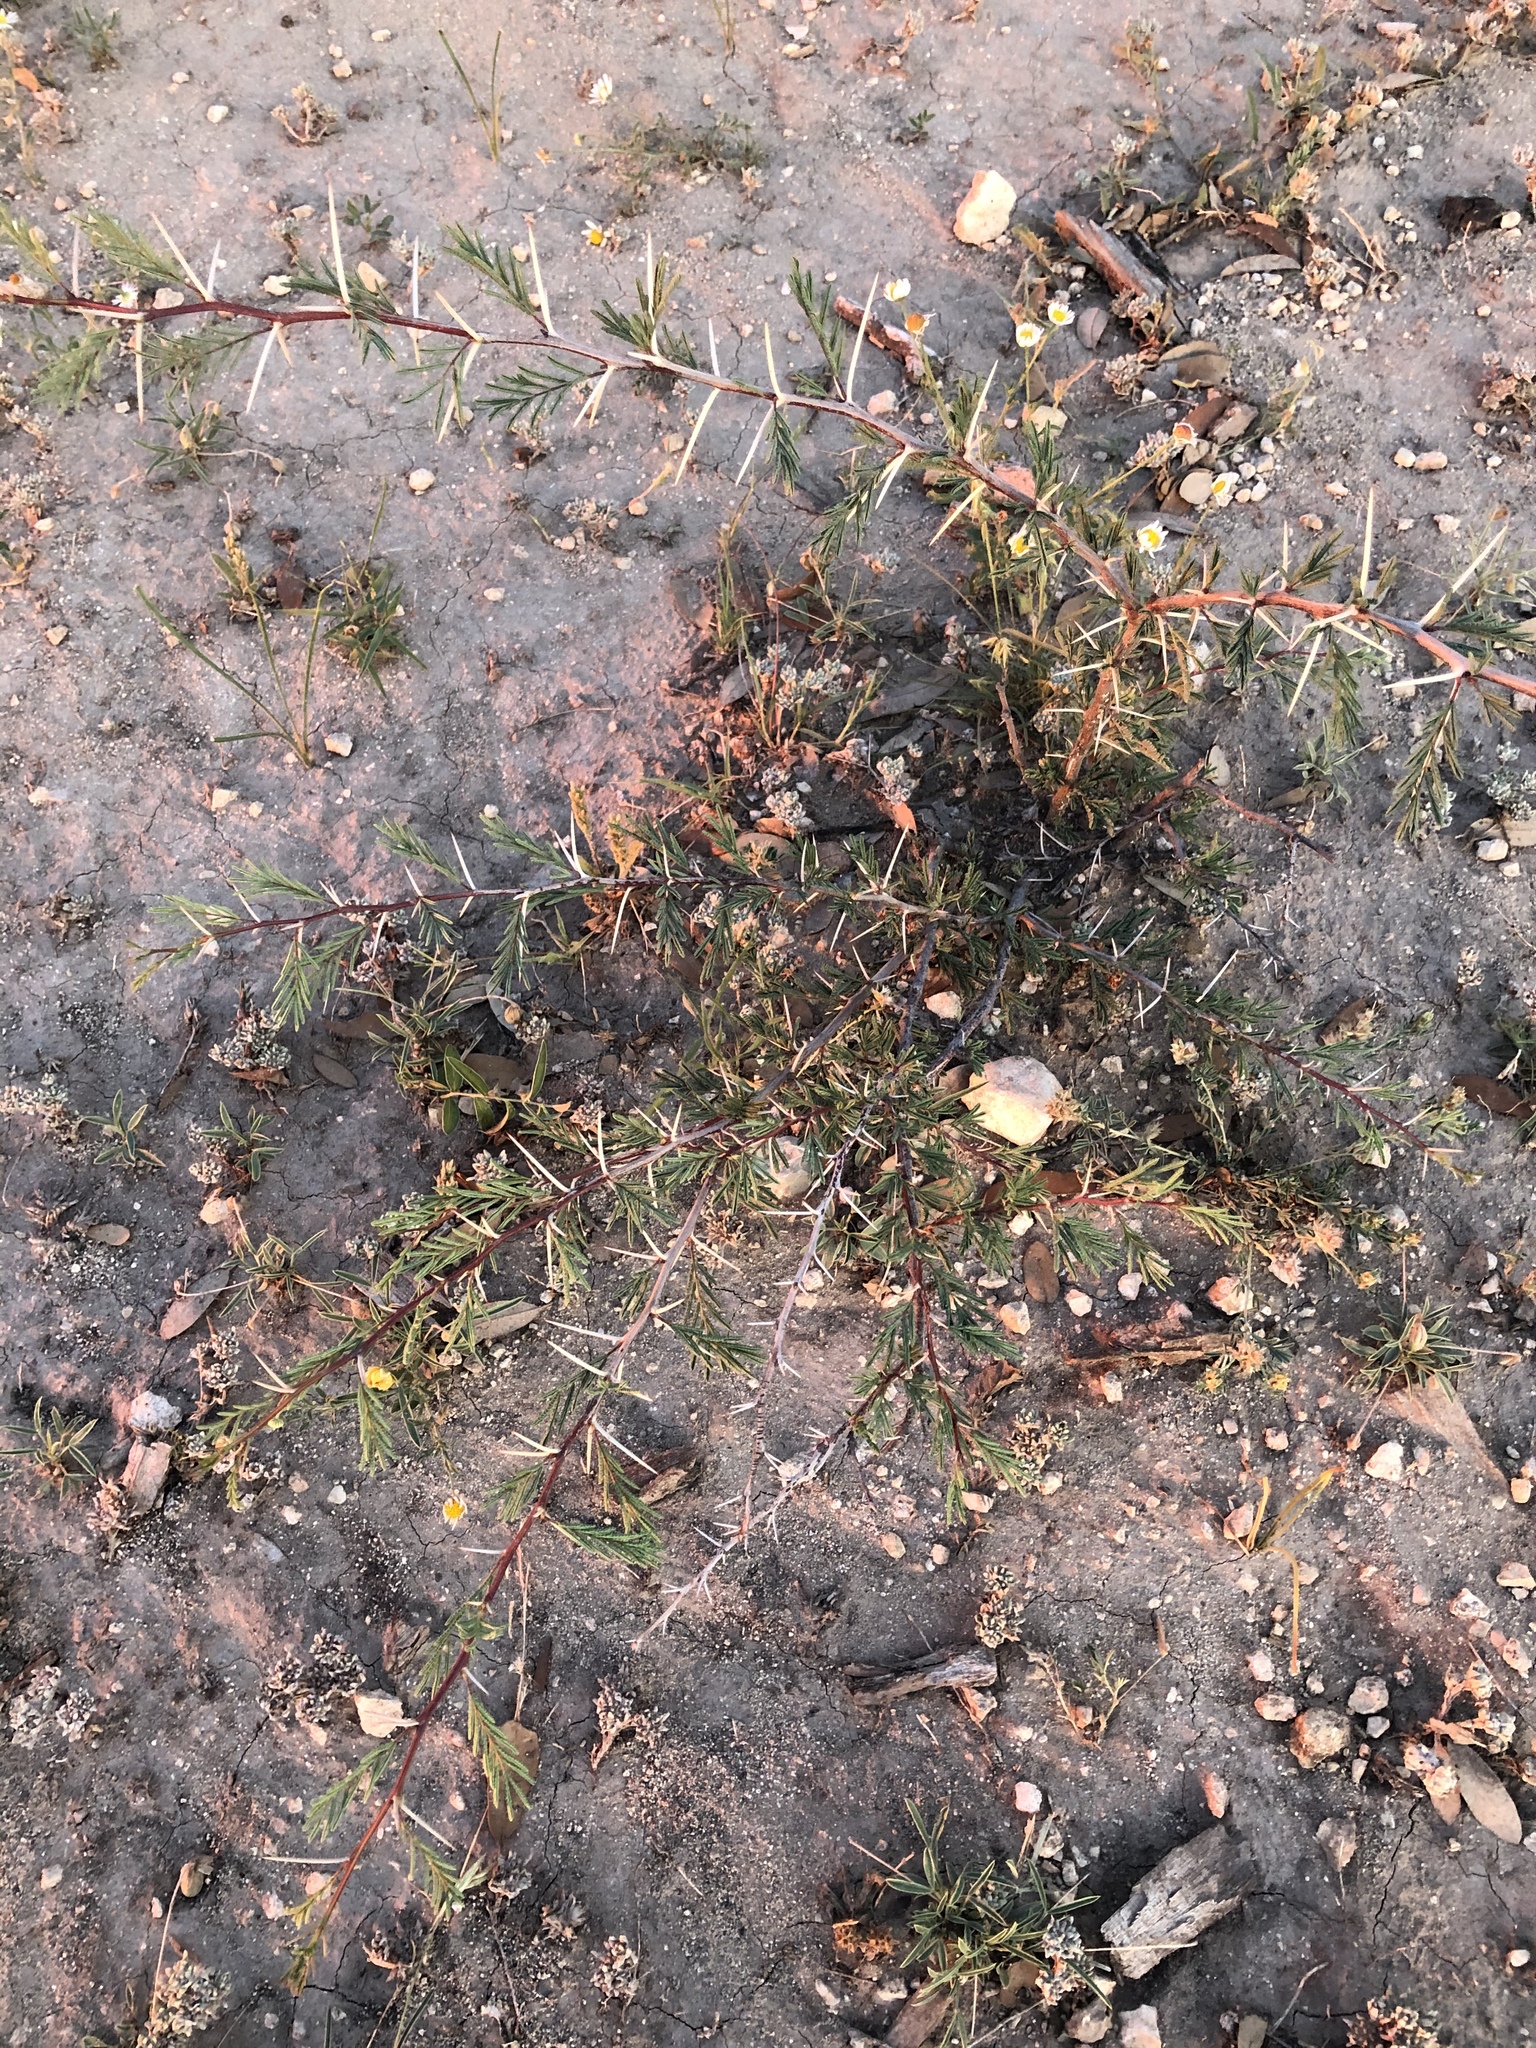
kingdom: Plantae
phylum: Tracheophyta
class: Magnoliopsida
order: Fabales
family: Fabaceae
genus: Vachellia
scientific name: Vachellia farnesiana
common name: Sweet acacia
